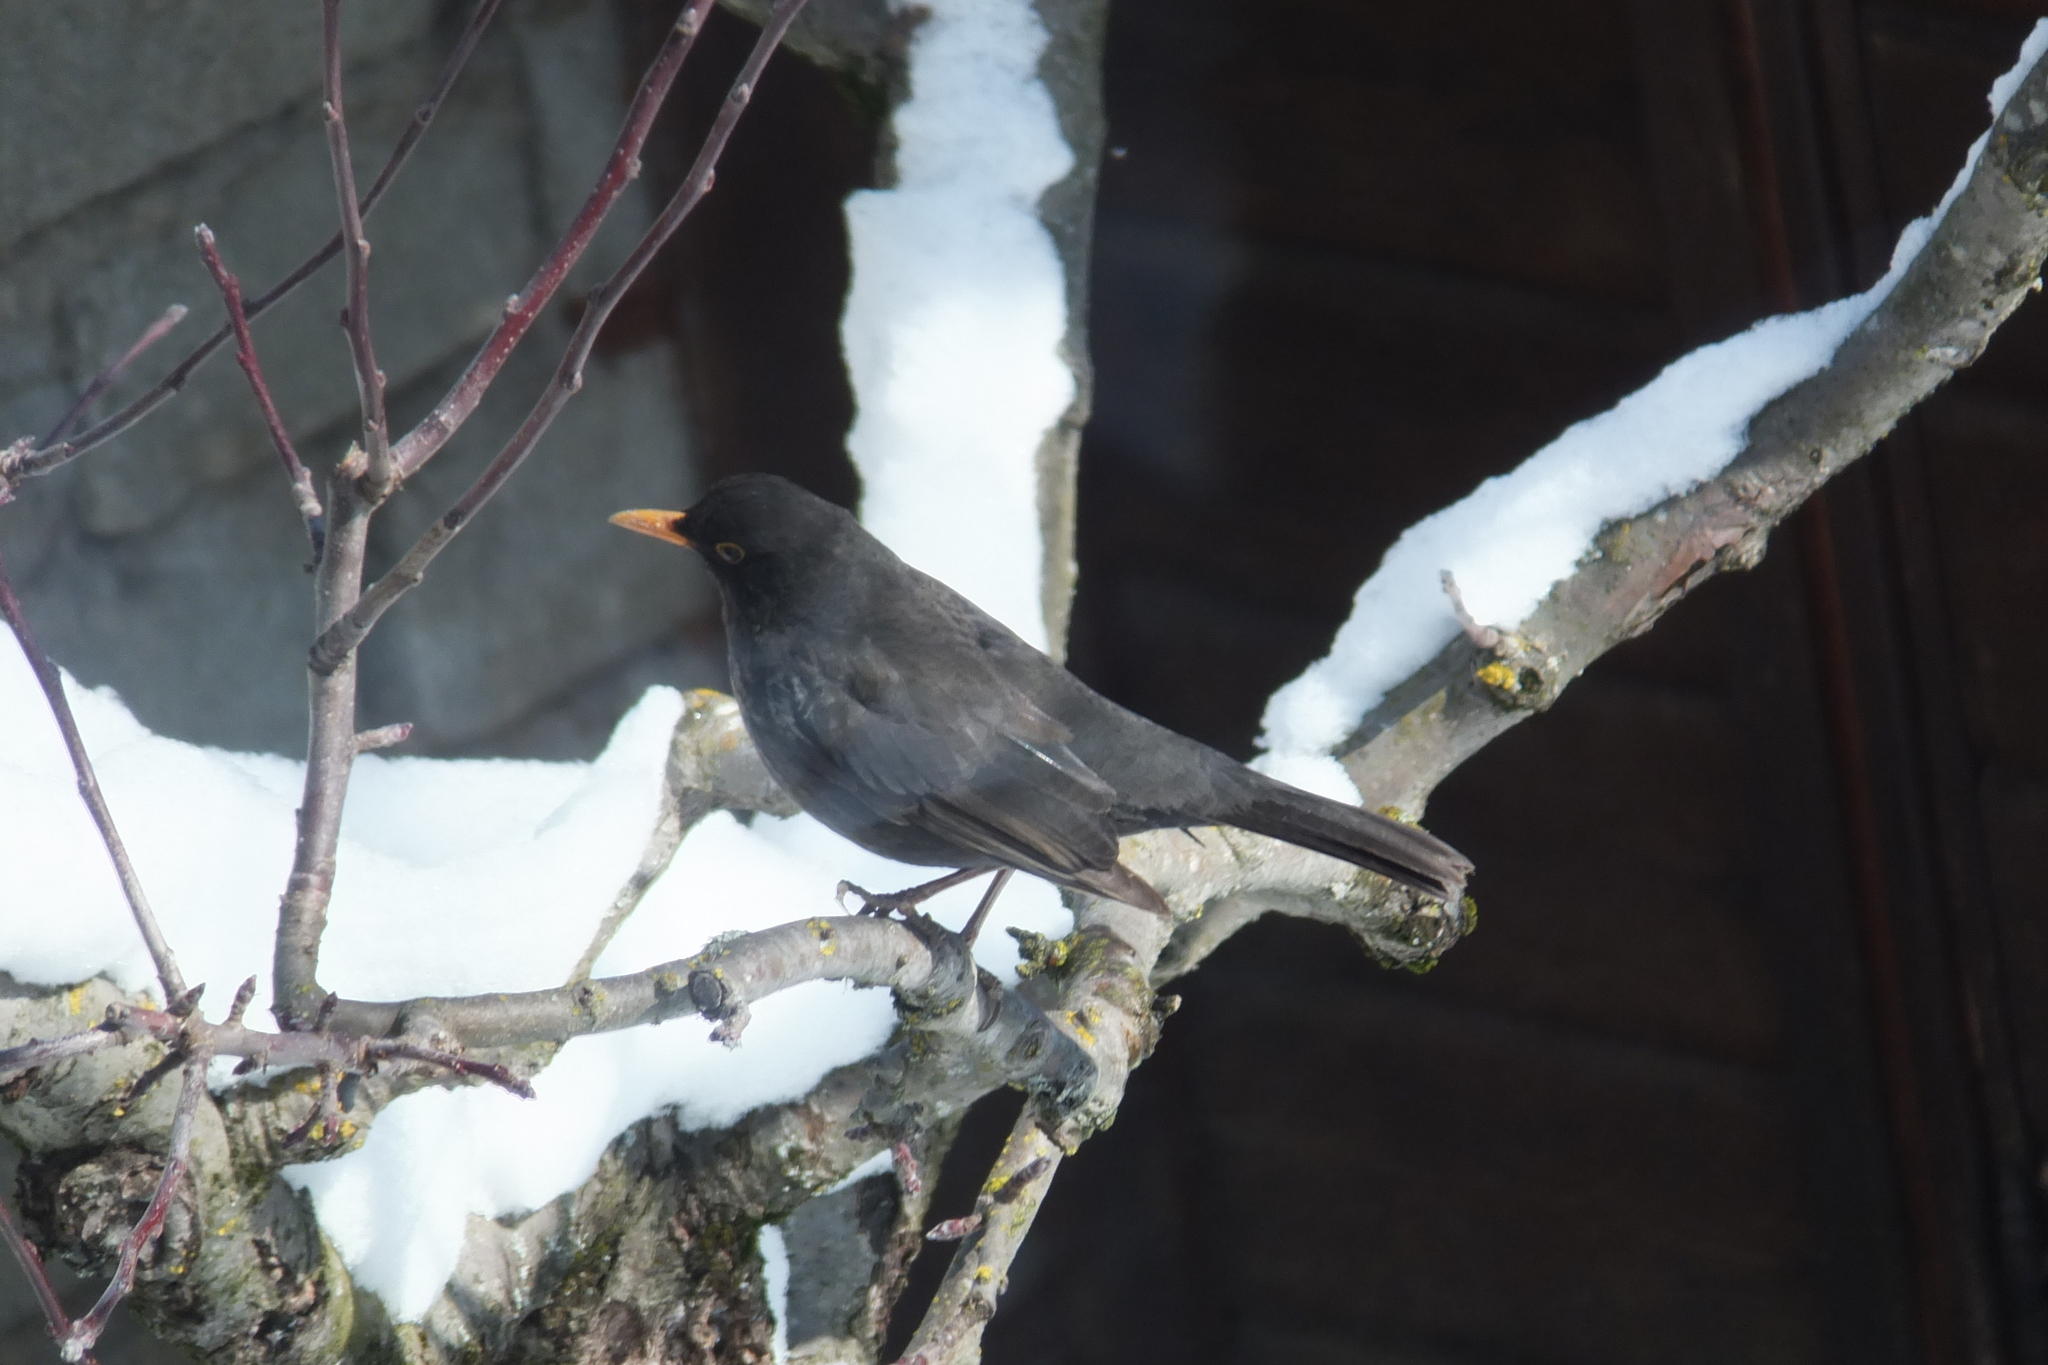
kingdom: Animalia
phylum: Chordata
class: Aves
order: Passeriformes
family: Turdidae
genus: Turdus
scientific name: Turdus merula
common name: Common blackbird
